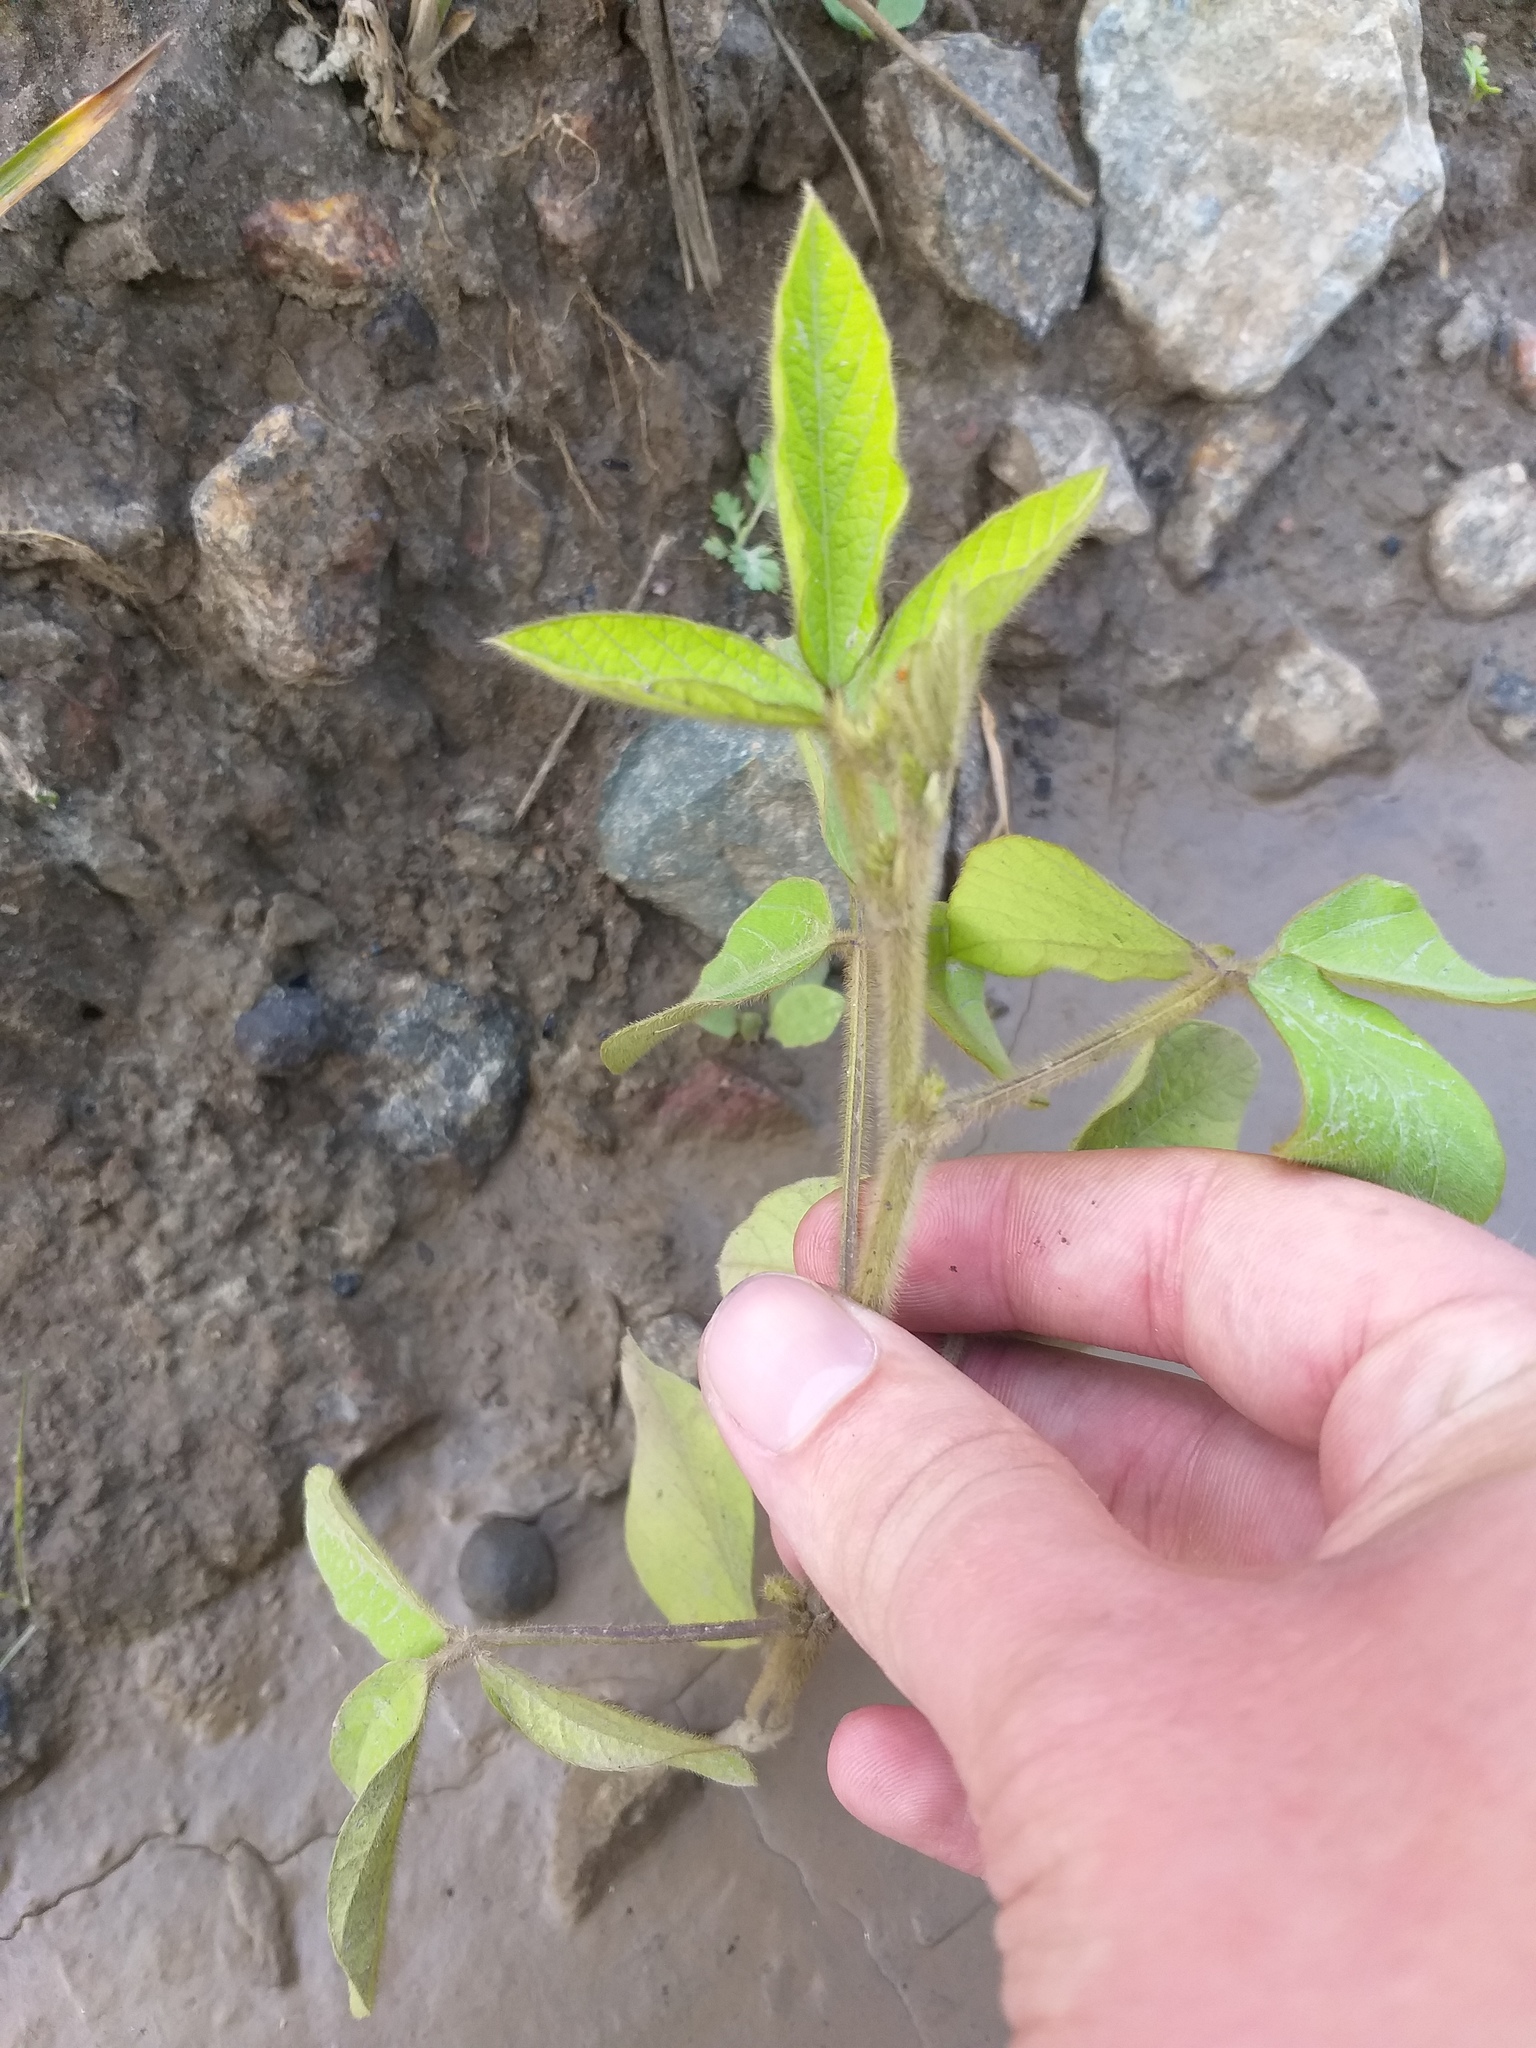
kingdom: Plantae
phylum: Tracheophyta
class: Magnoliopsida
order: Fabales
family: Fabaceae
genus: Glycine
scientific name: Glycine max
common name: Soya-bean
